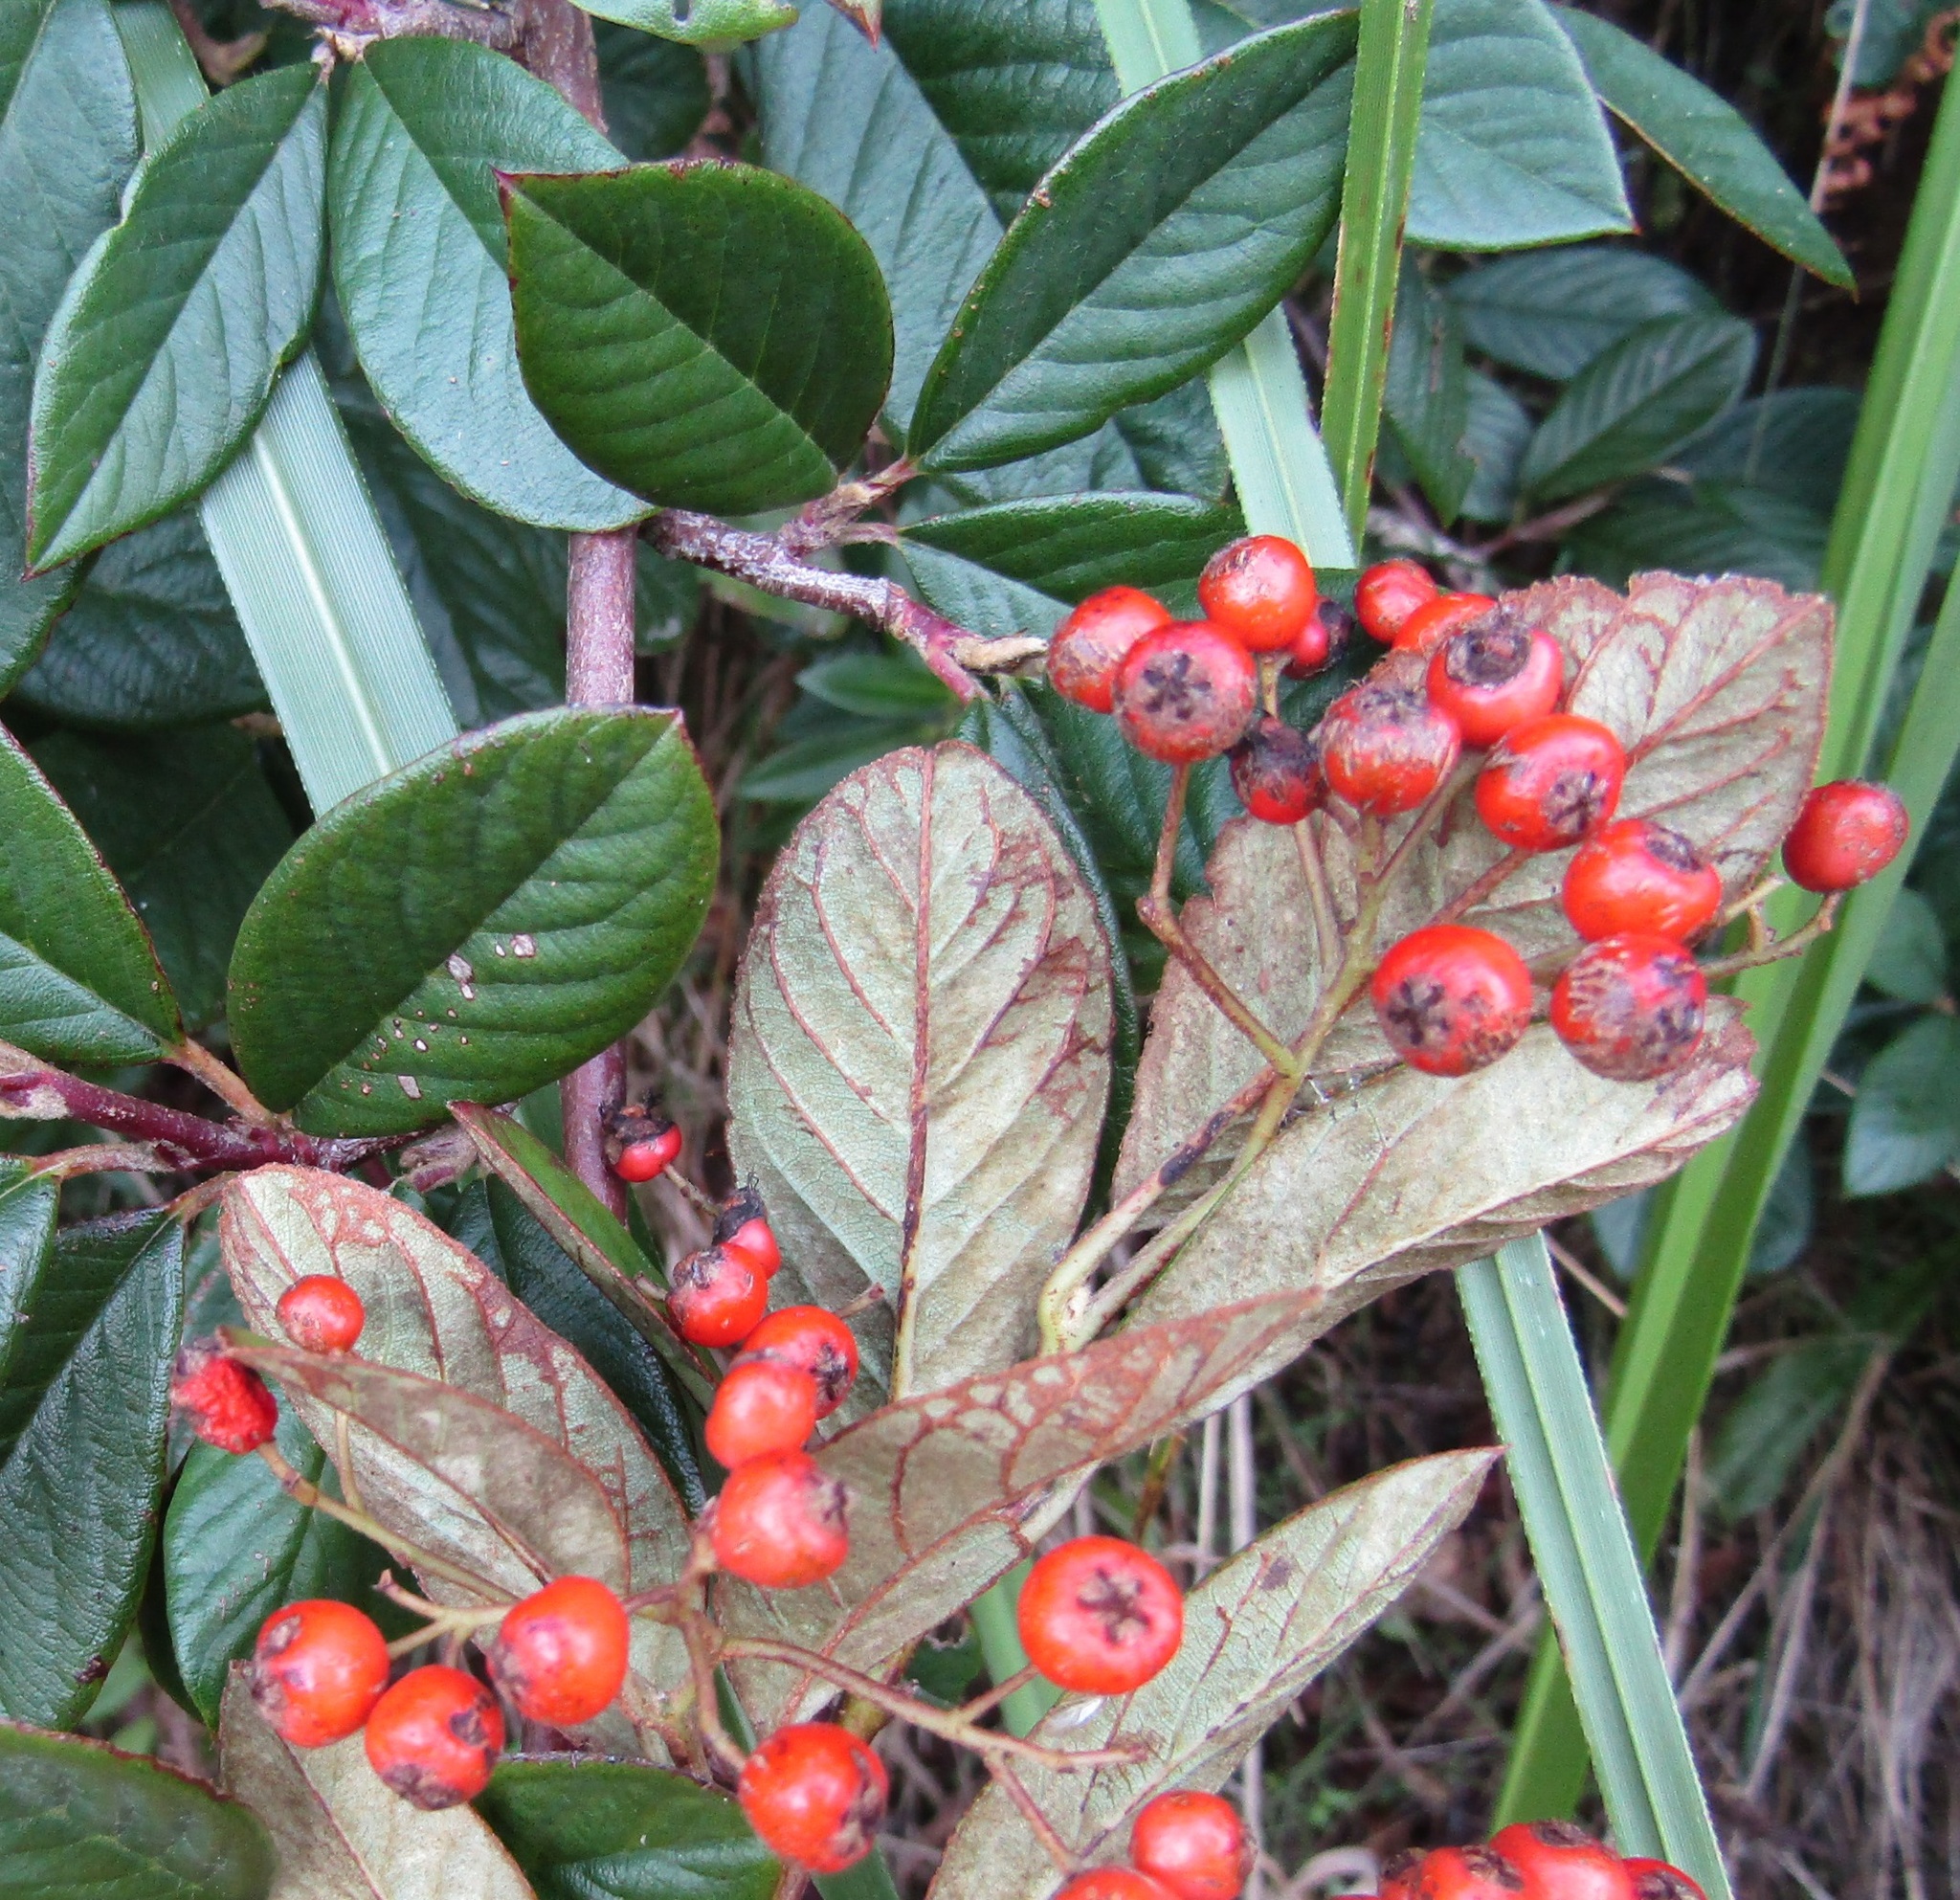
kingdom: Plantae
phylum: Tracheophyta
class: Magnoliopsida
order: Rosales
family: Rosaceae
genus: Cotoneaster
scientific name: Cotoneaster coriaceus
